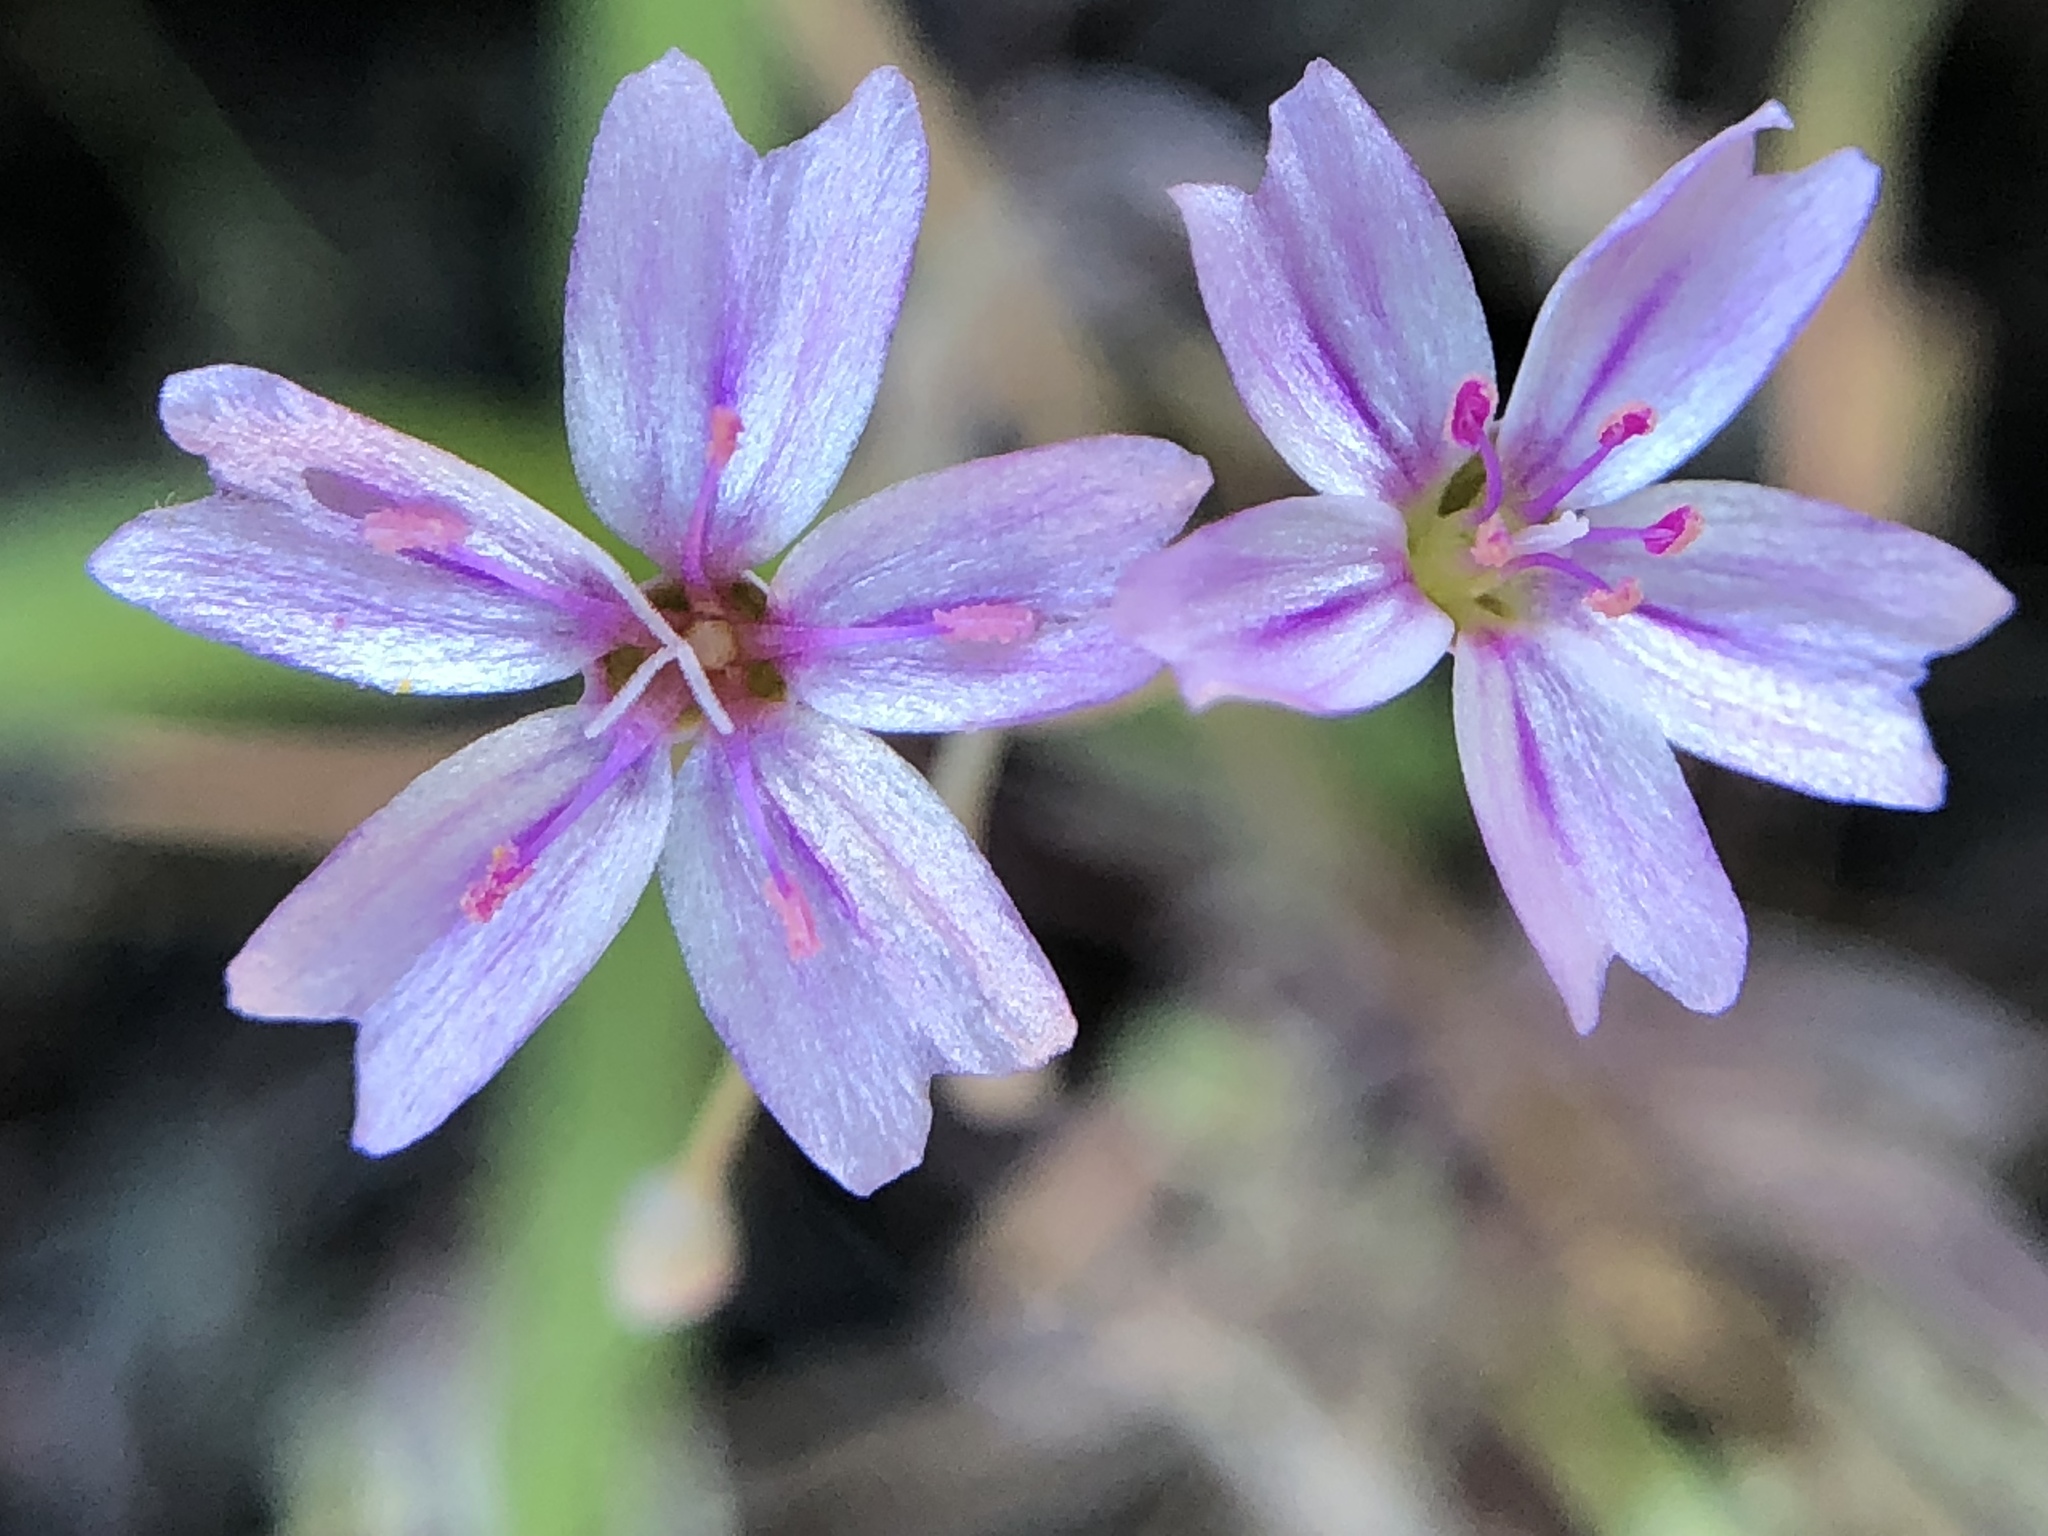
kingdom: Plantae
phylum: Tracheophyta
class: Magnoliopsida
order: Caryophyllales
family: Montiaceae
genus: Claytonia
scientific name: Claytonia gypsophiloides
